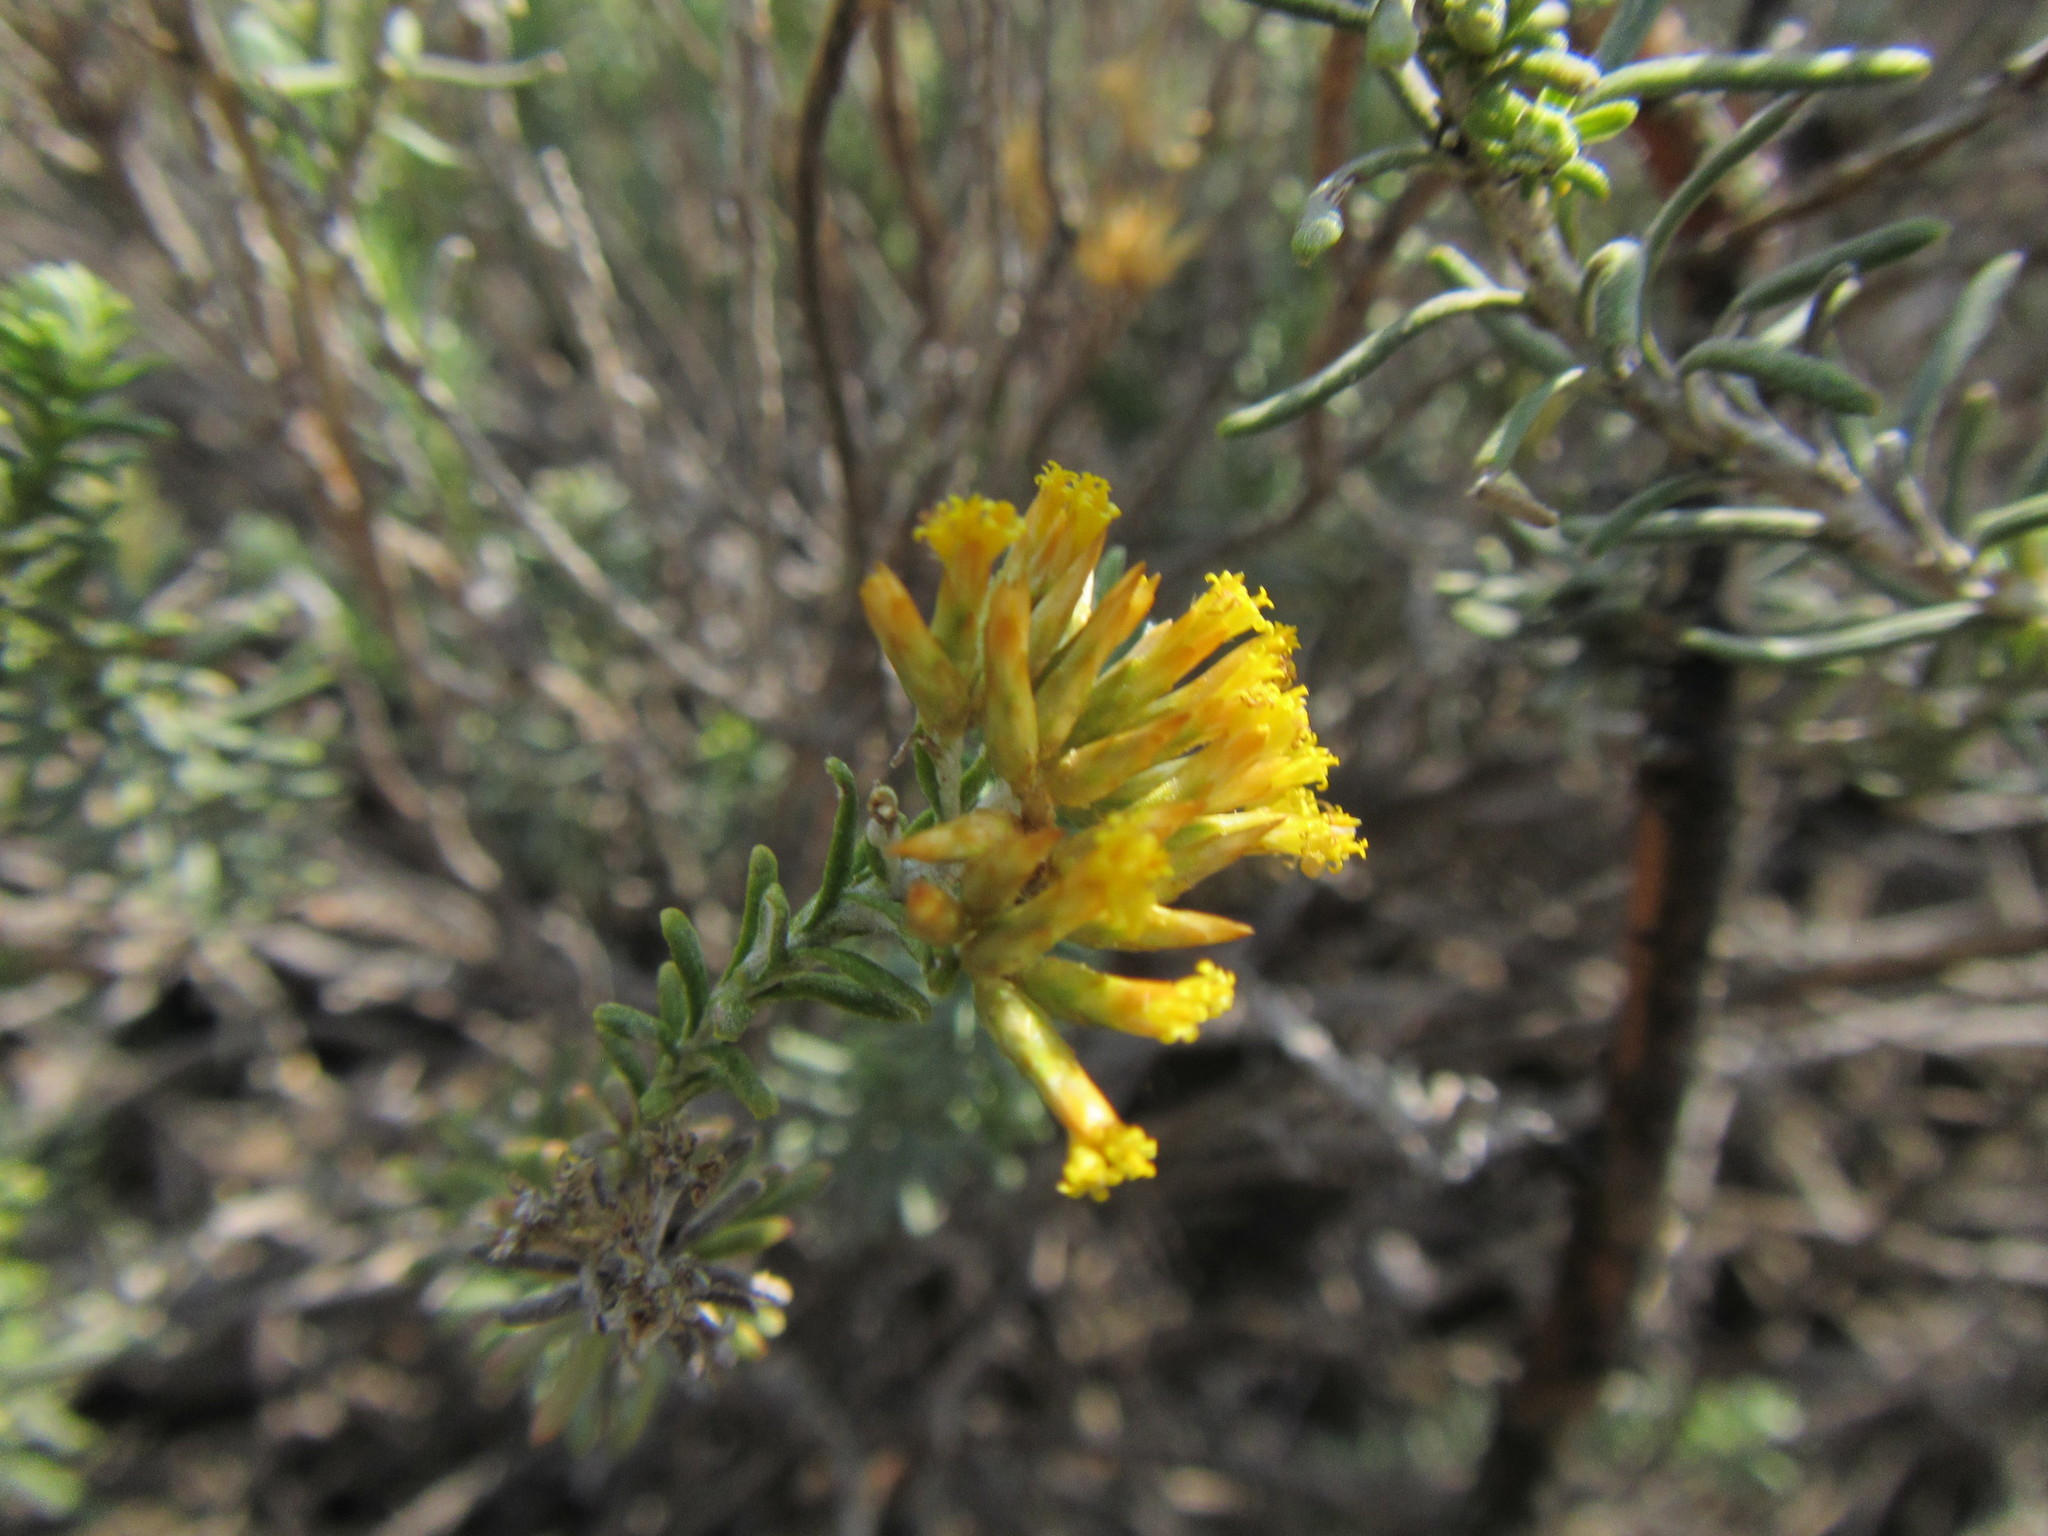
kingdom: Plantae
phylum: Tracheophyta
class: Magnoliopsida
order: Asterales
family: Asteraceae
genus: Helichrysum
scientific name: Helichrysum hamulosum
